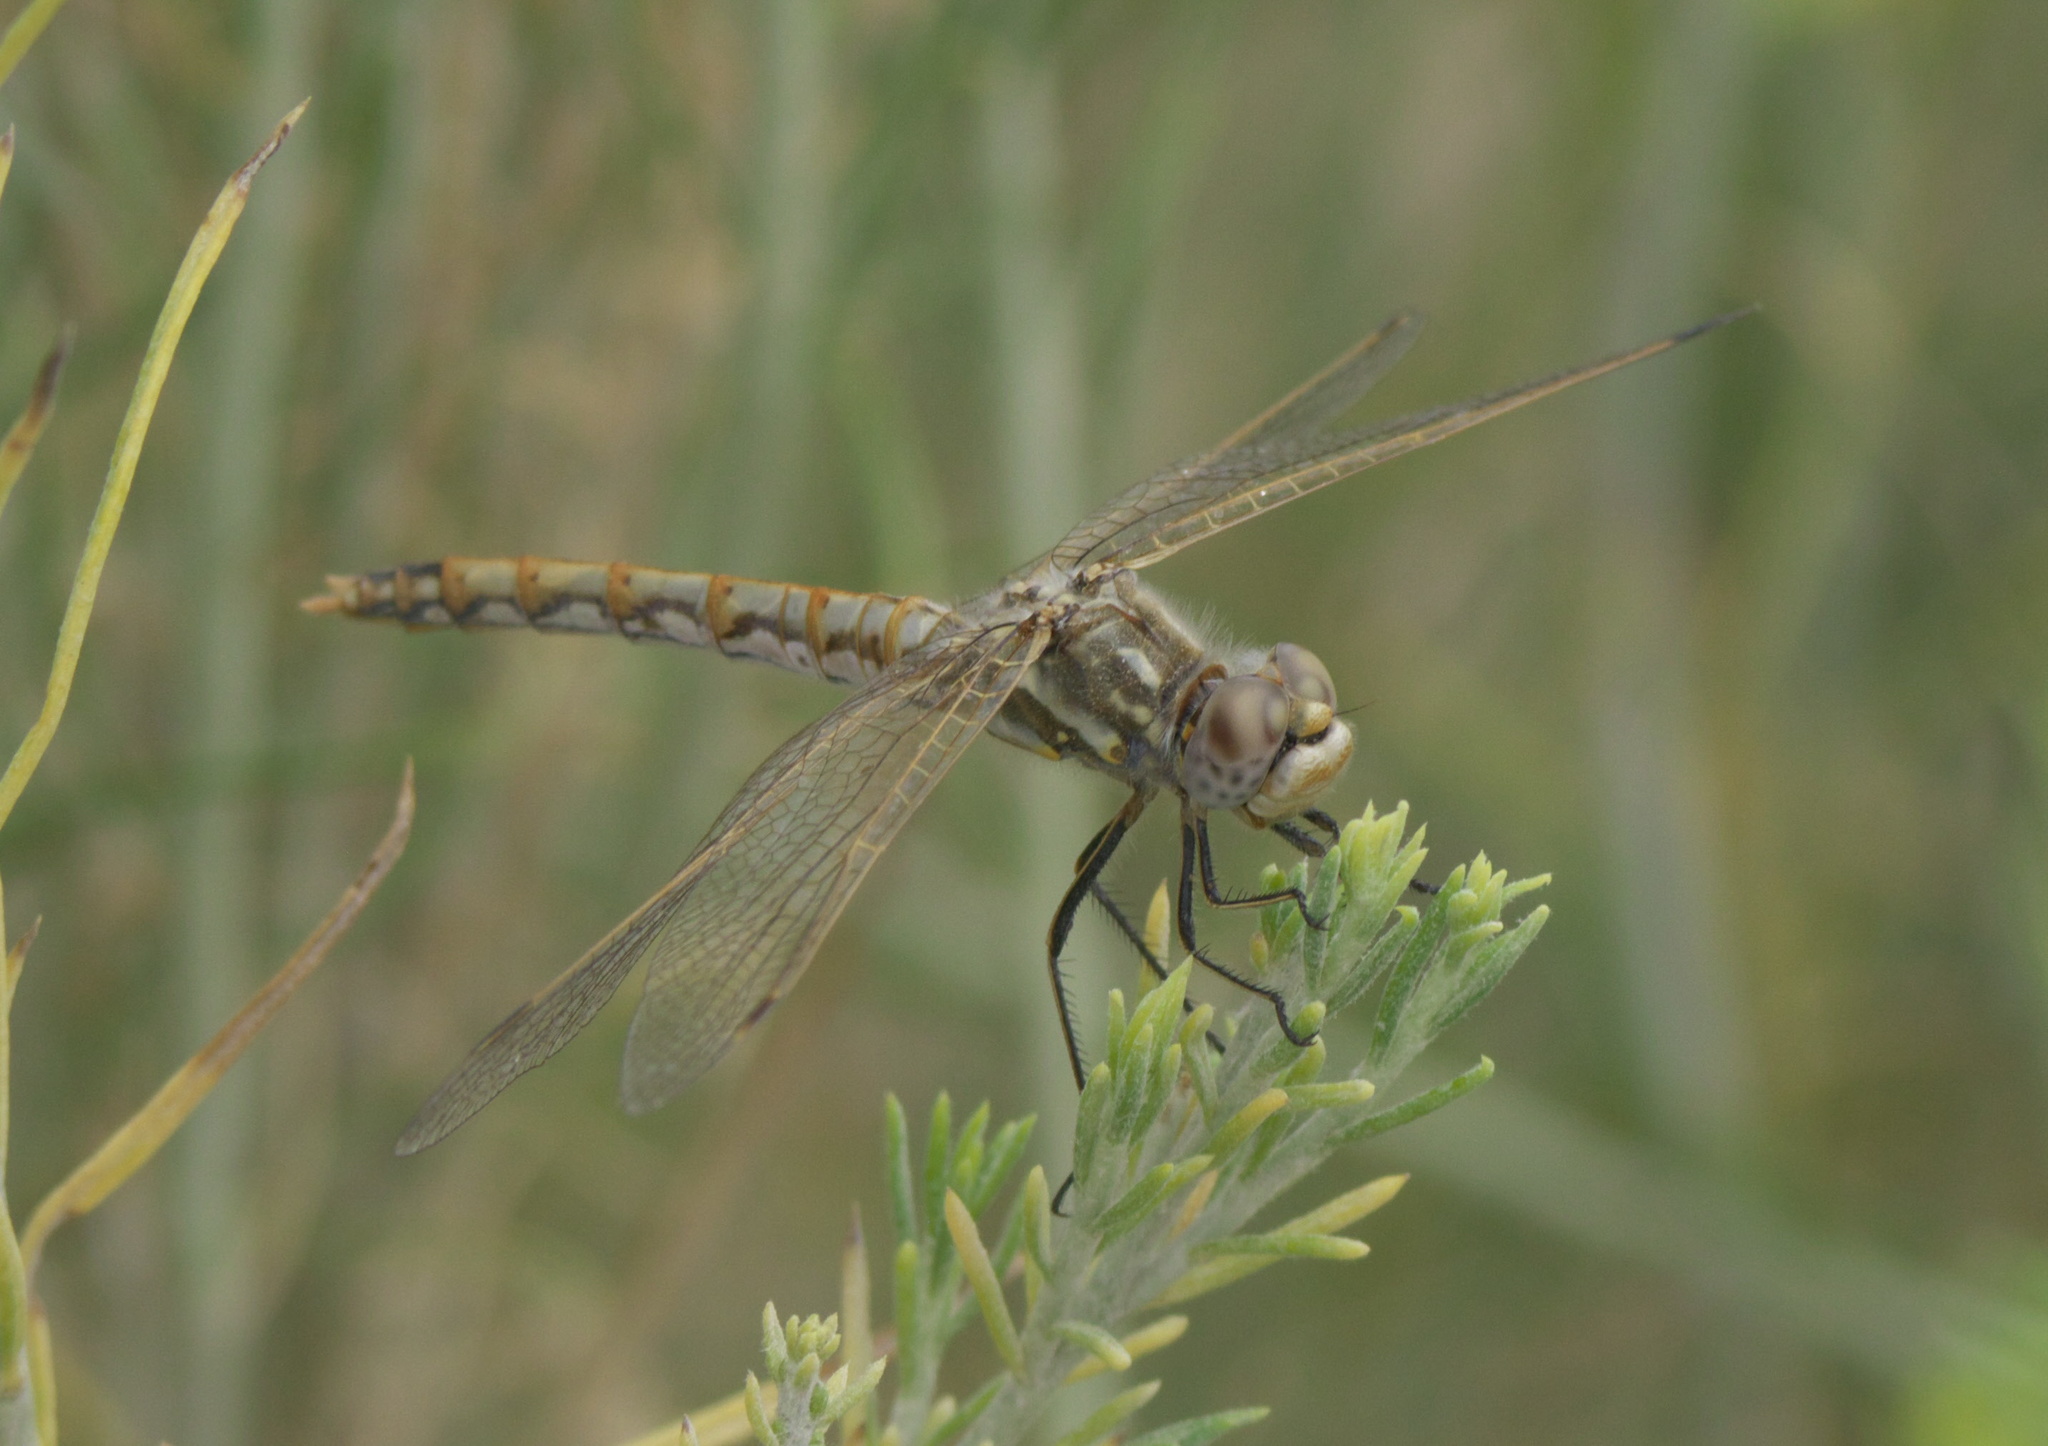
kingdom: Animalia
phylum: Arthropoda
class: Insecta
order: Odonata
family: Libellulidae
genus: Sympetrum
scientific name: Sympetrum corruptum
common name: Variegated meadowhawk
